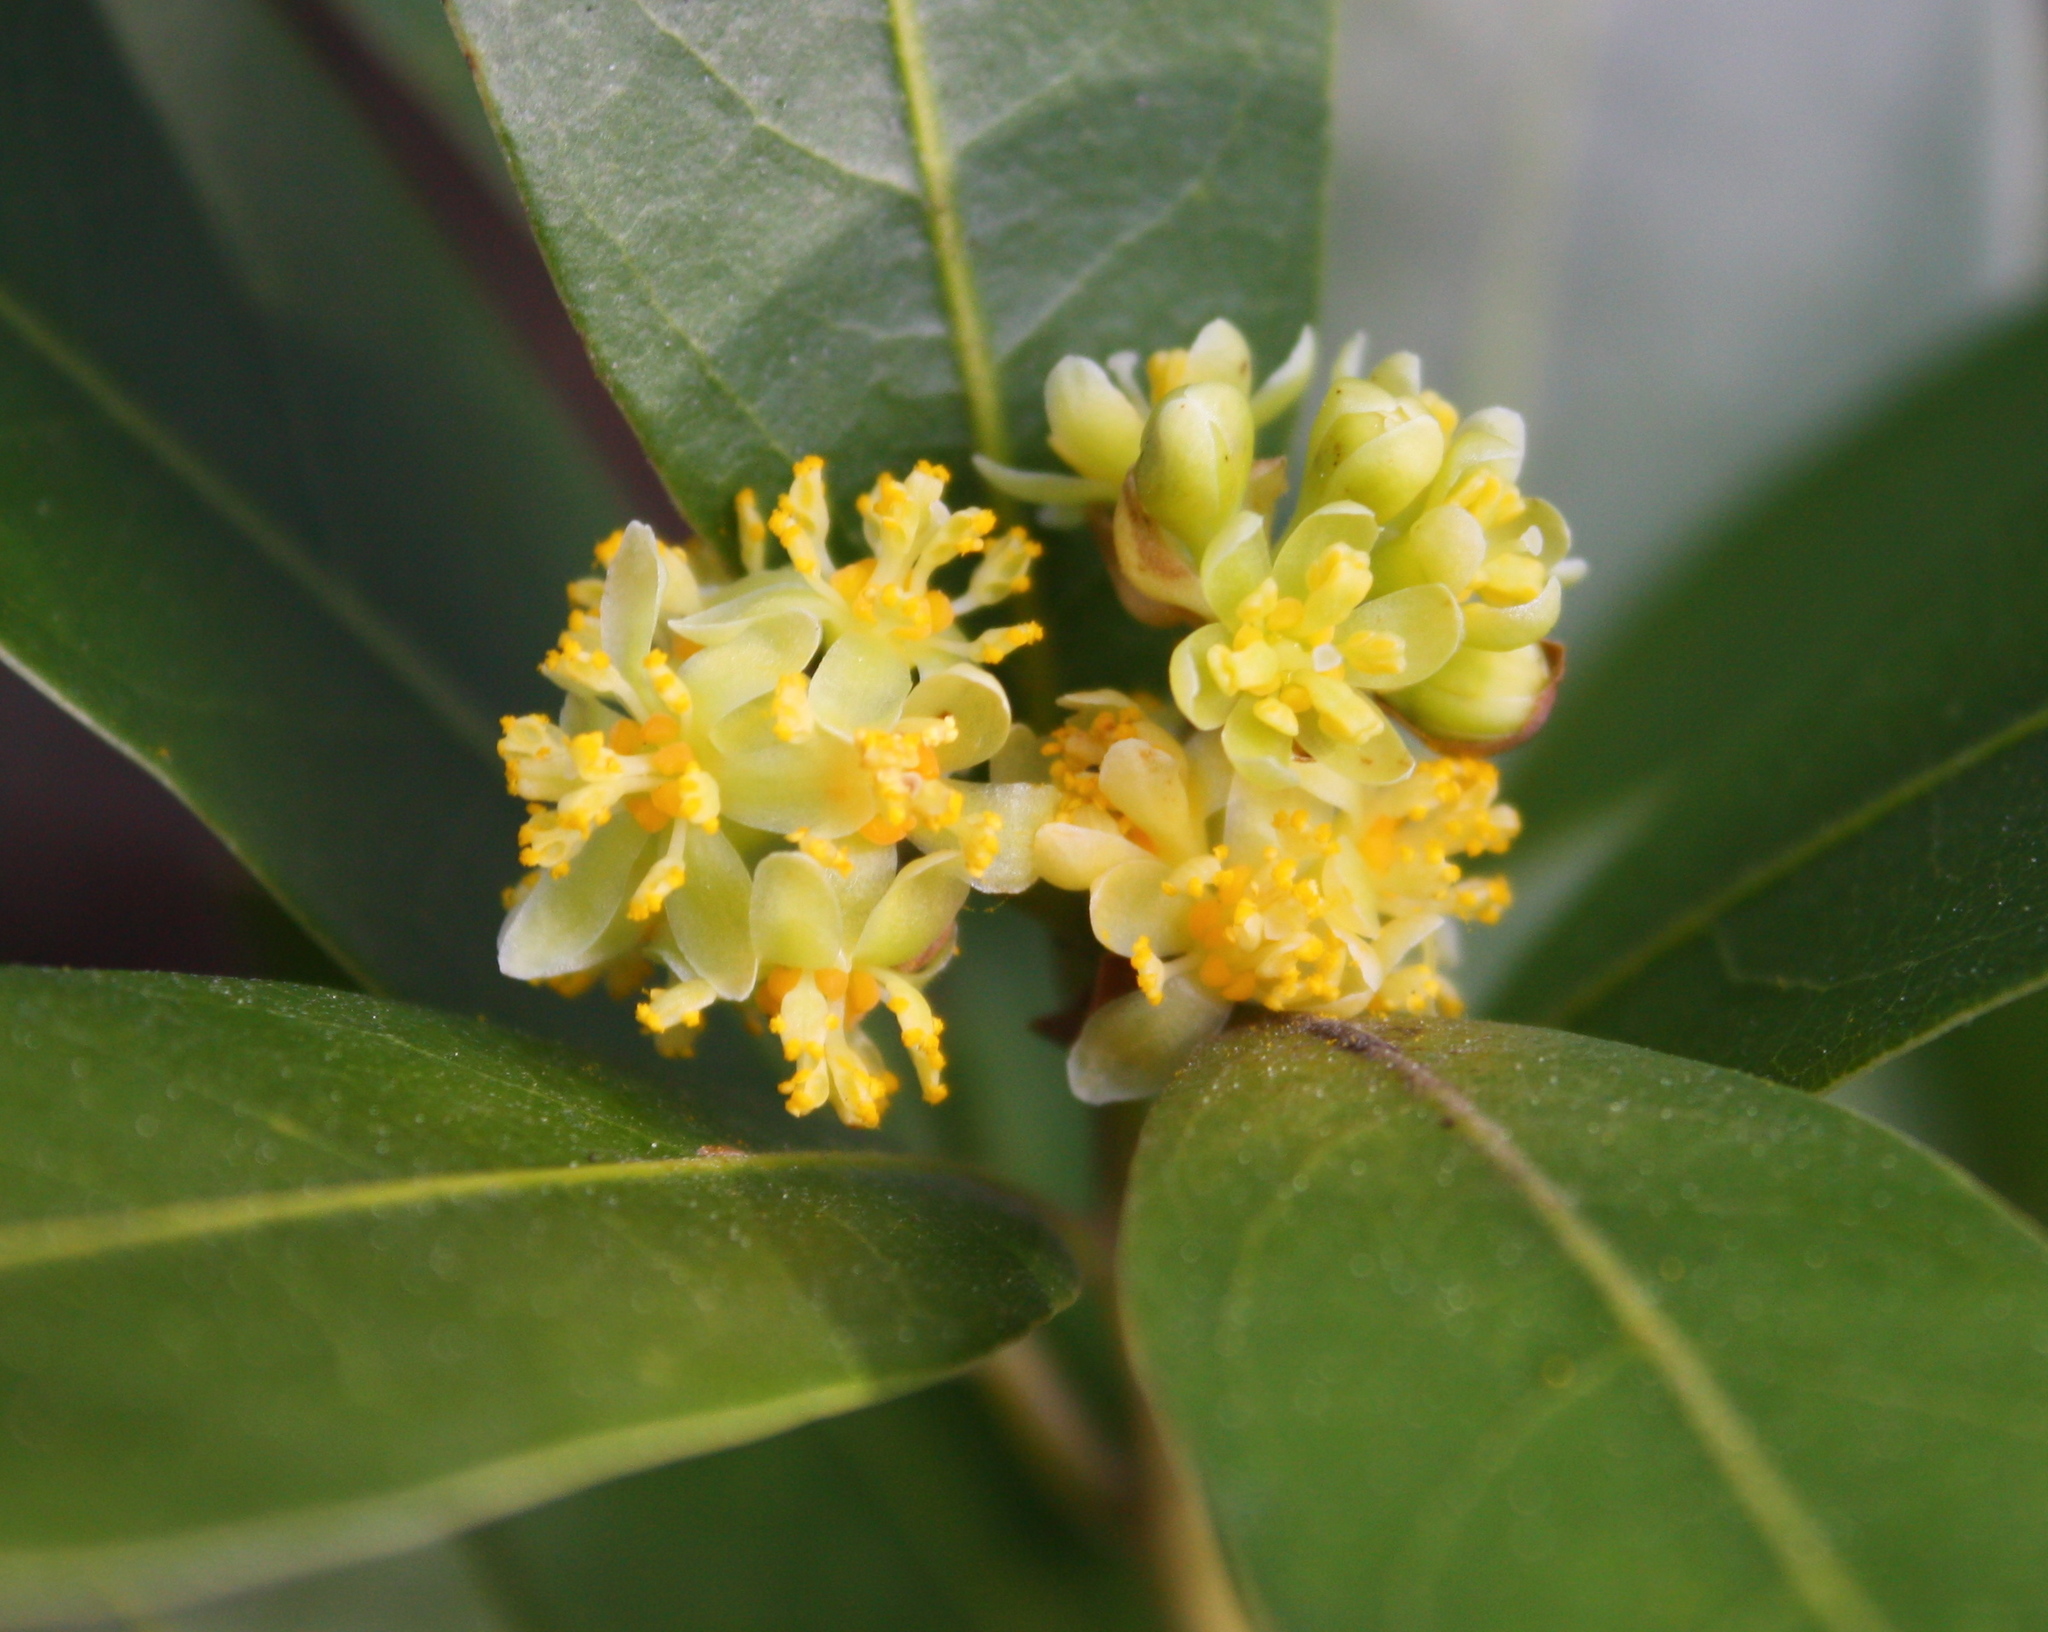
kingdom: Plantae
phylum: Tracheophyta
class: Magnoliopsida
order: Laurales
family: Lauraceae
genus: Umbellularia
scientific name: Umbellularia californica
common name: California bay
